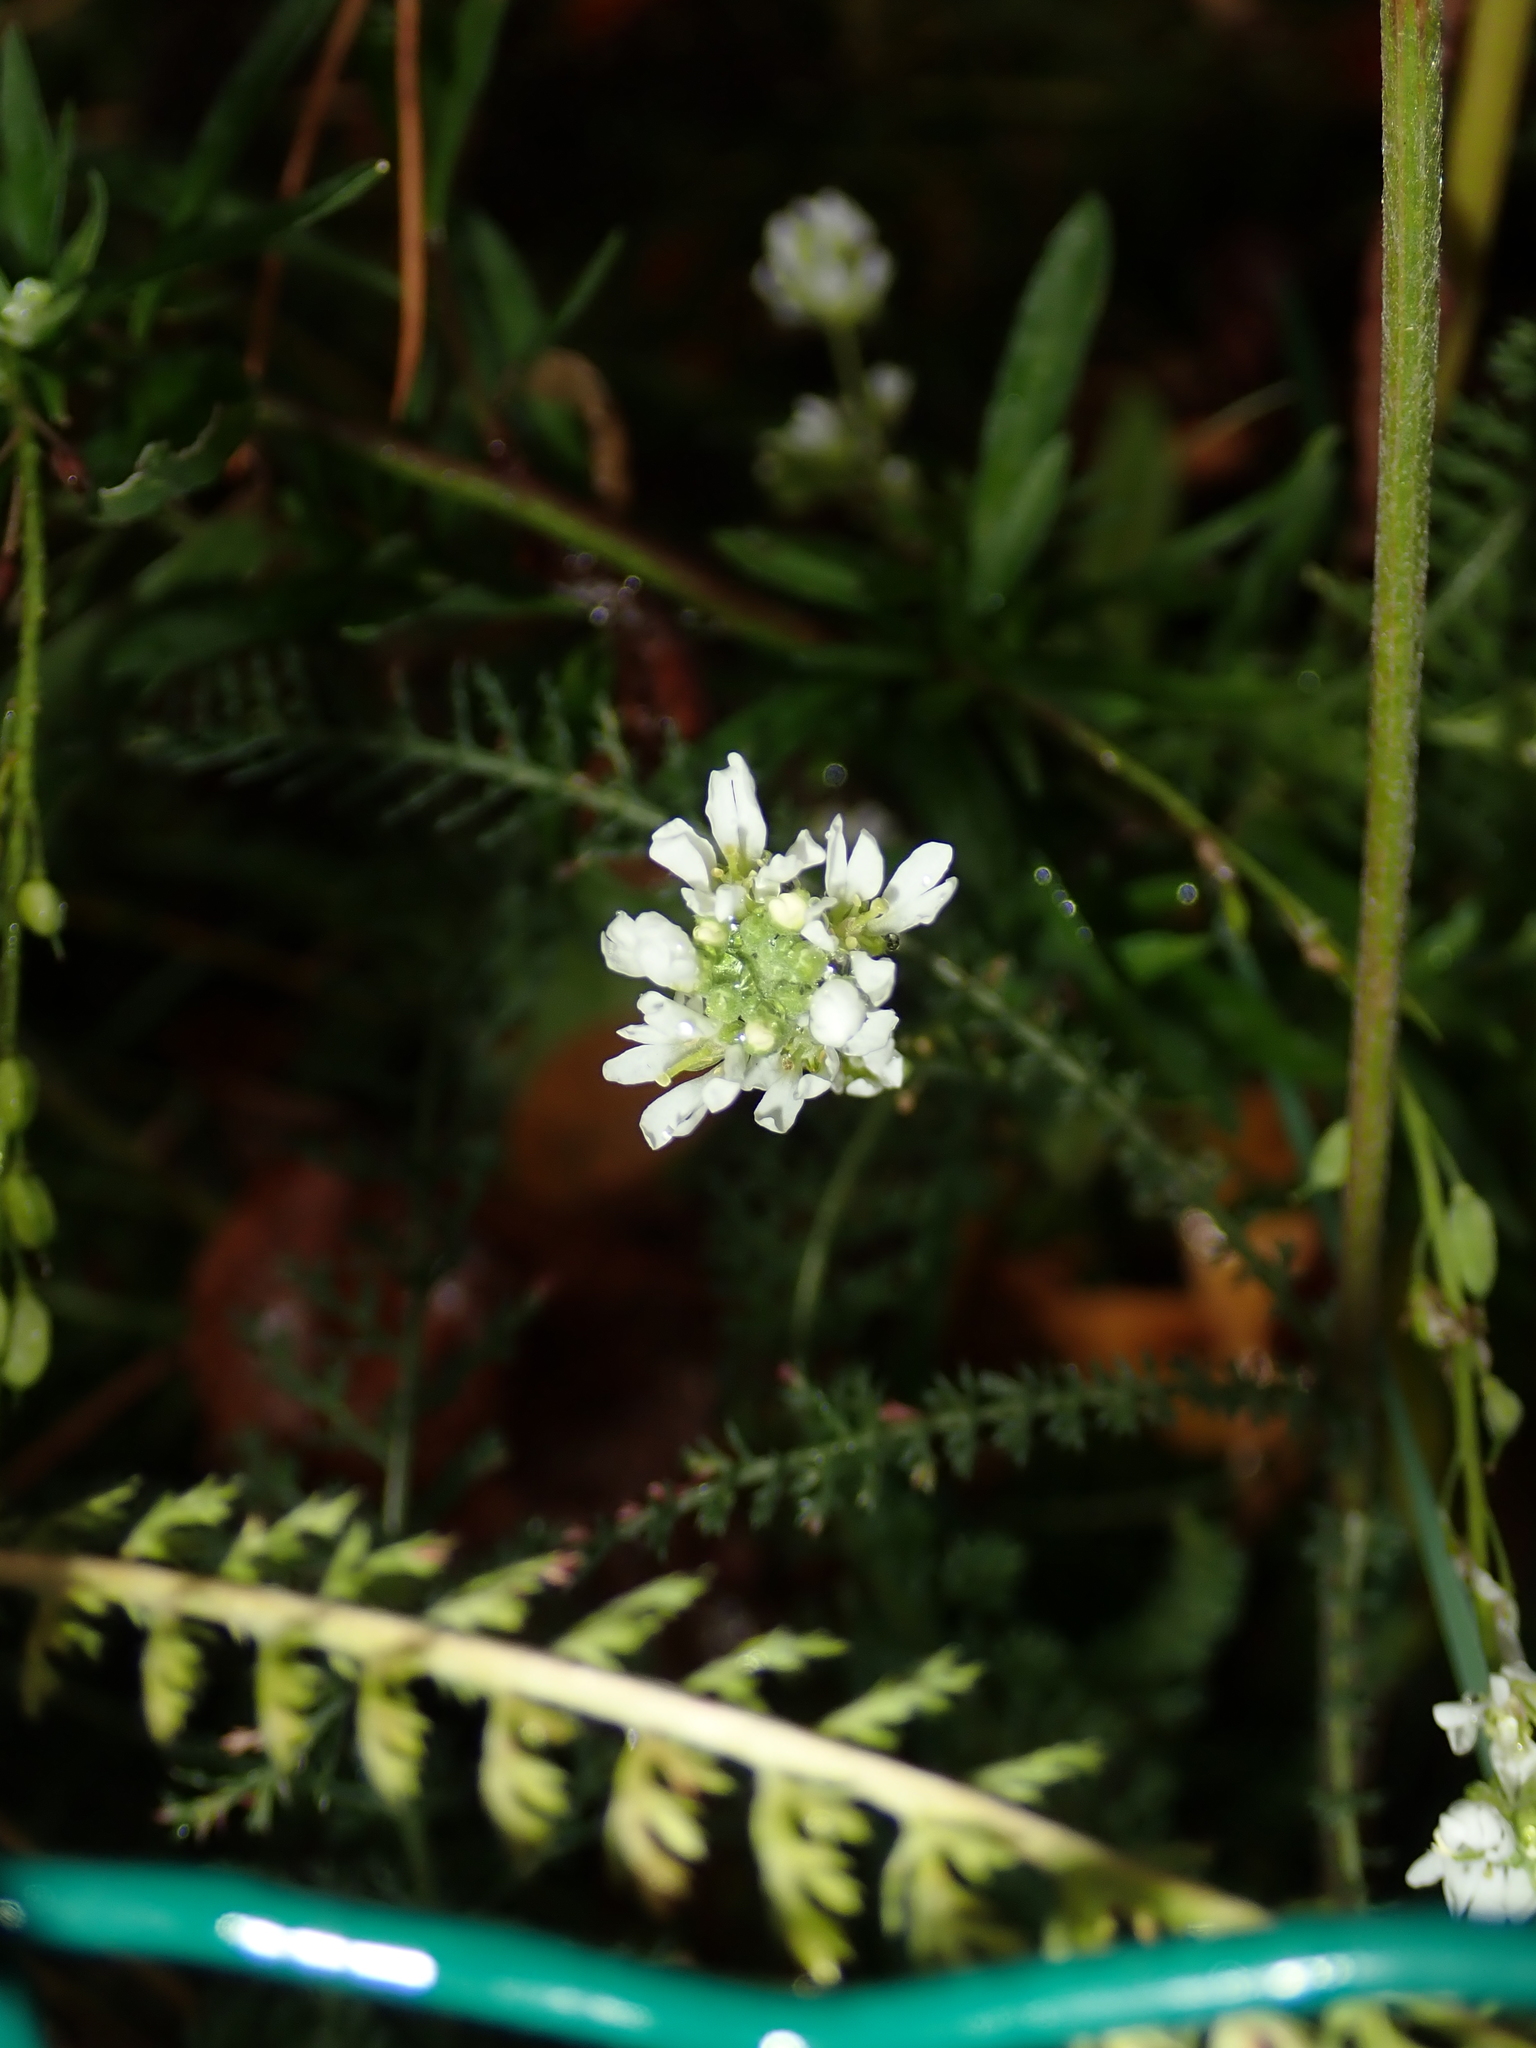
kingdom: Plantae
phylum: Tracheophyta
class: Magnoliopsida
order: Brassicales
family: Brassicaceae
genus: Berteroa
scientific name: Berteroa incana
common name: Hoary alison
